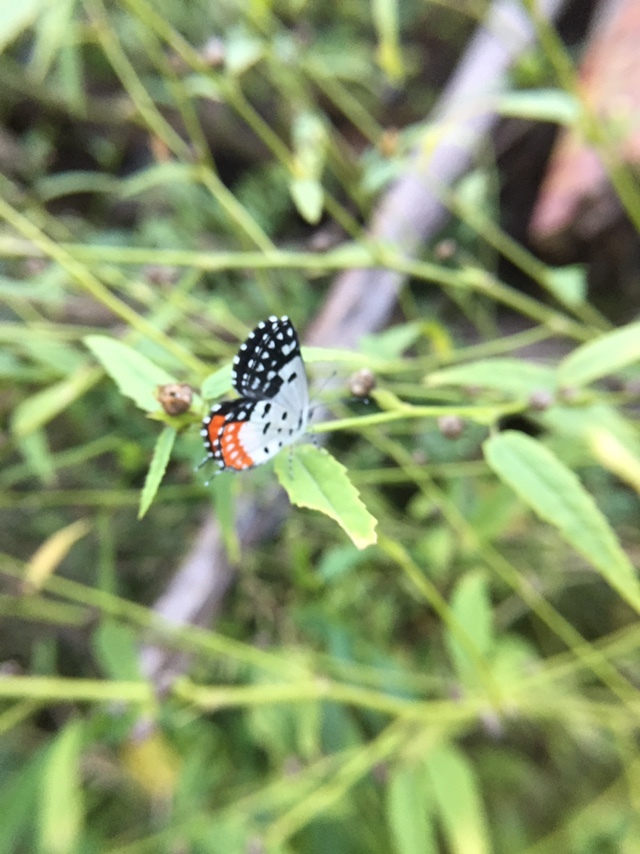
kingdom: Animalia
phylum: Arthropoda
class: Insecta
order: Lepidoptera
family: Lycaenidae
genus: Talicada
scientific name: Talicada nyseus
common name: Red pierrot
